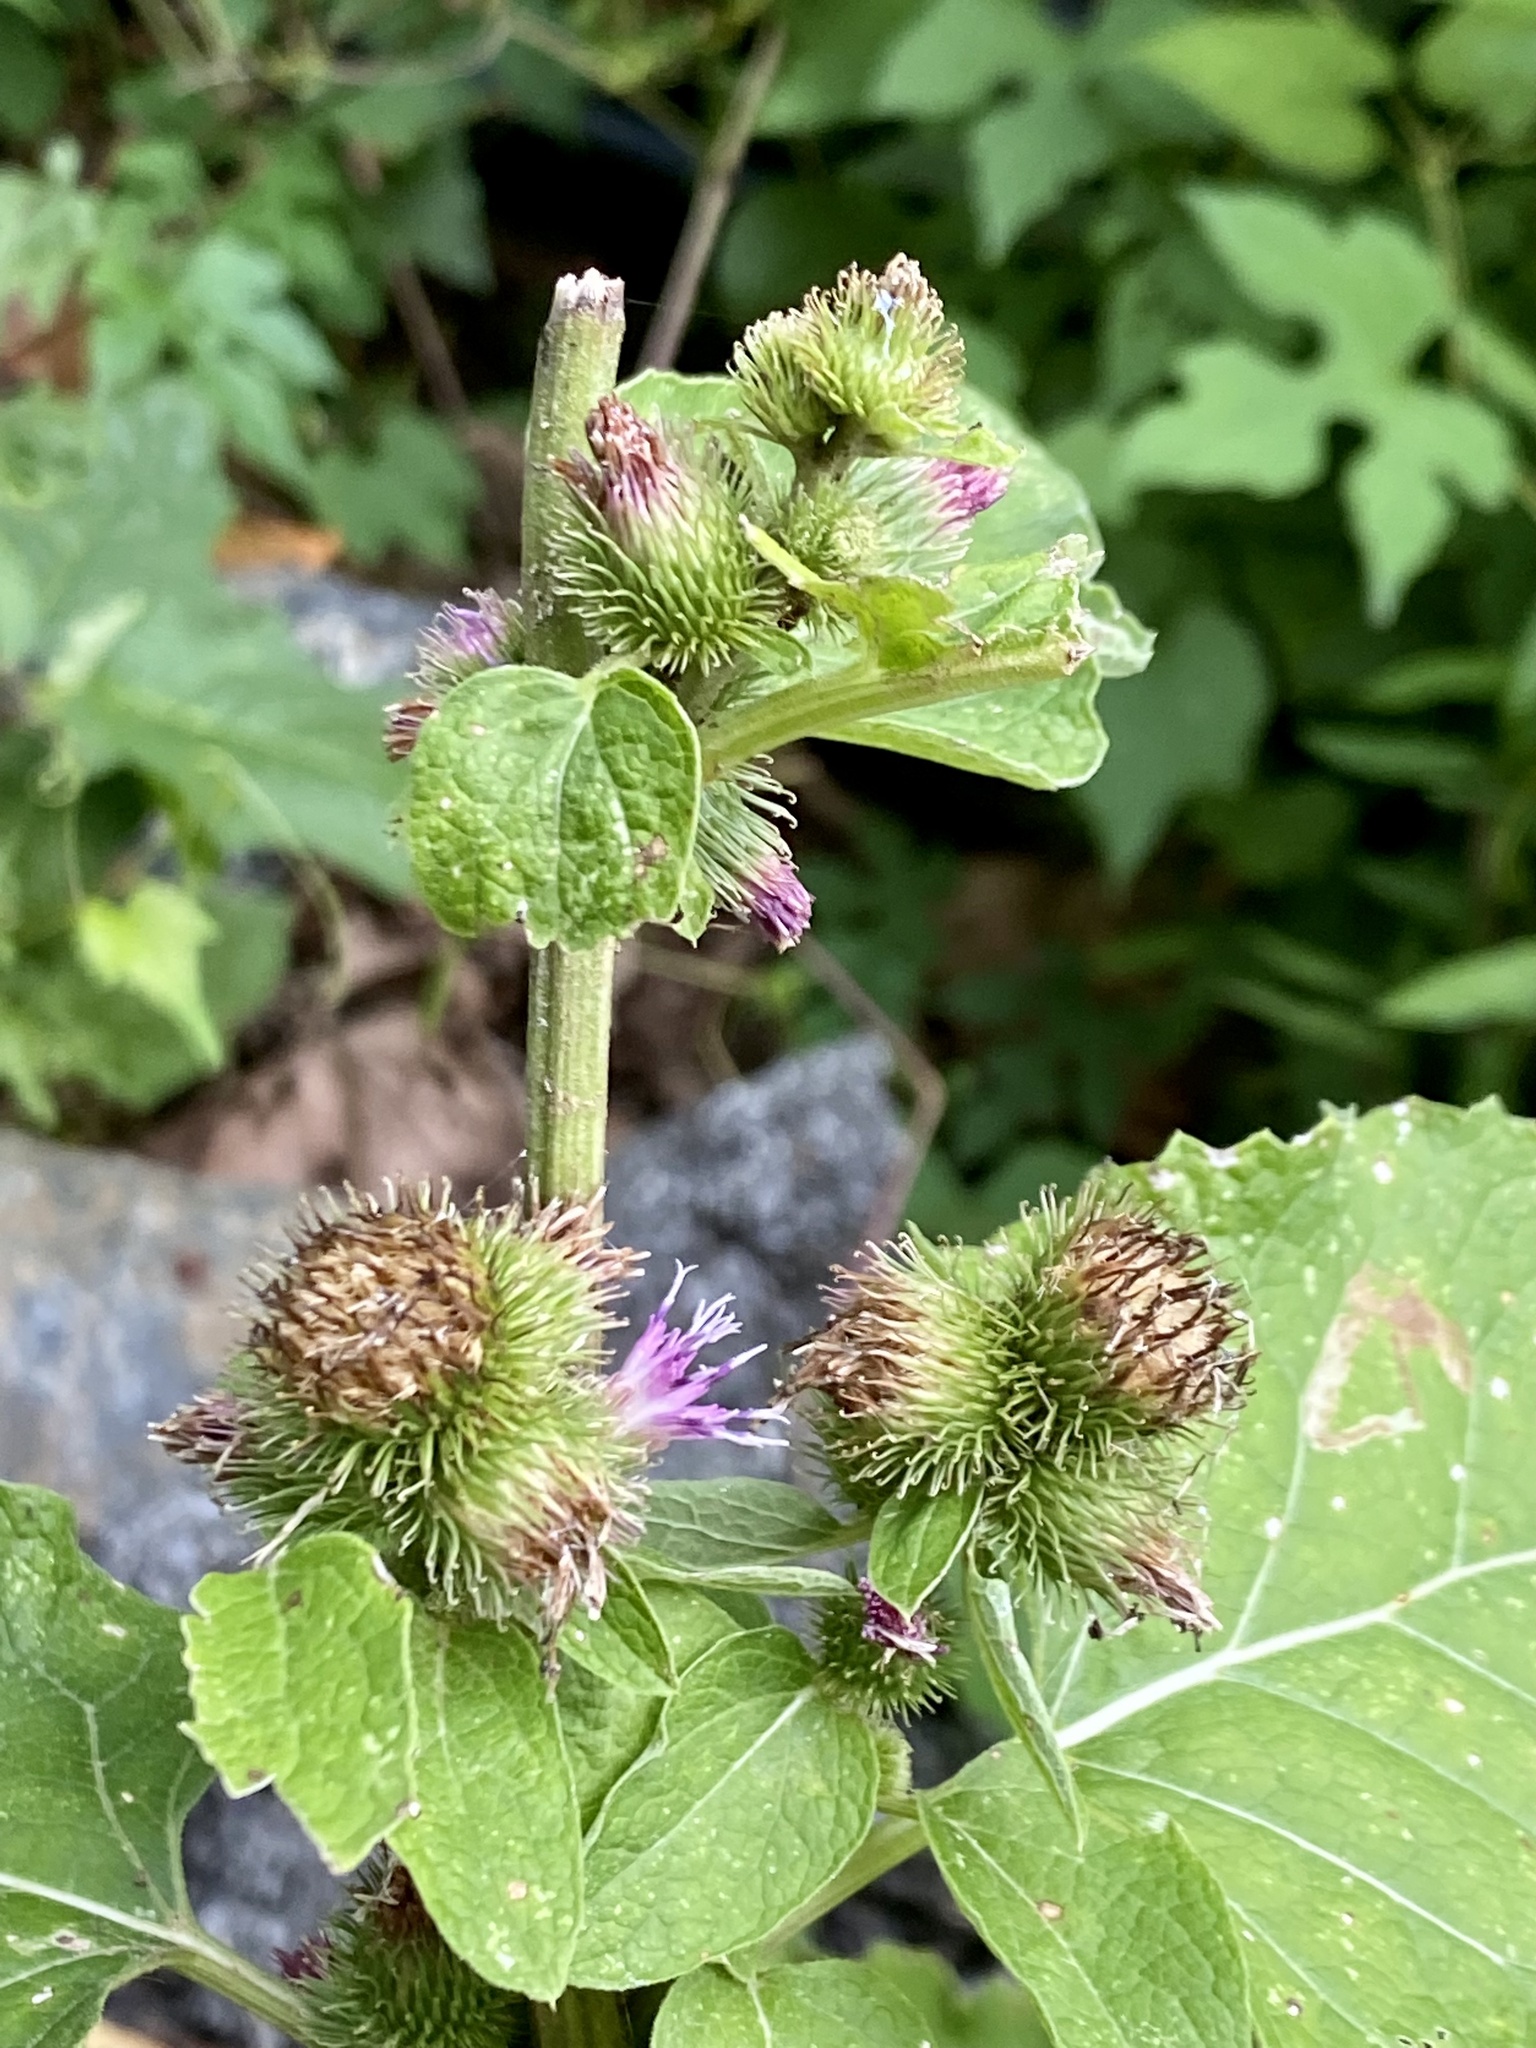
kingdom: Plantae
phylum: Tracheophyta
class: Magnoliopsida
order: Asterales
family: Asteraceae
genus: Arctium
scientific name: Arctium minus
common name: Lesser burdock
